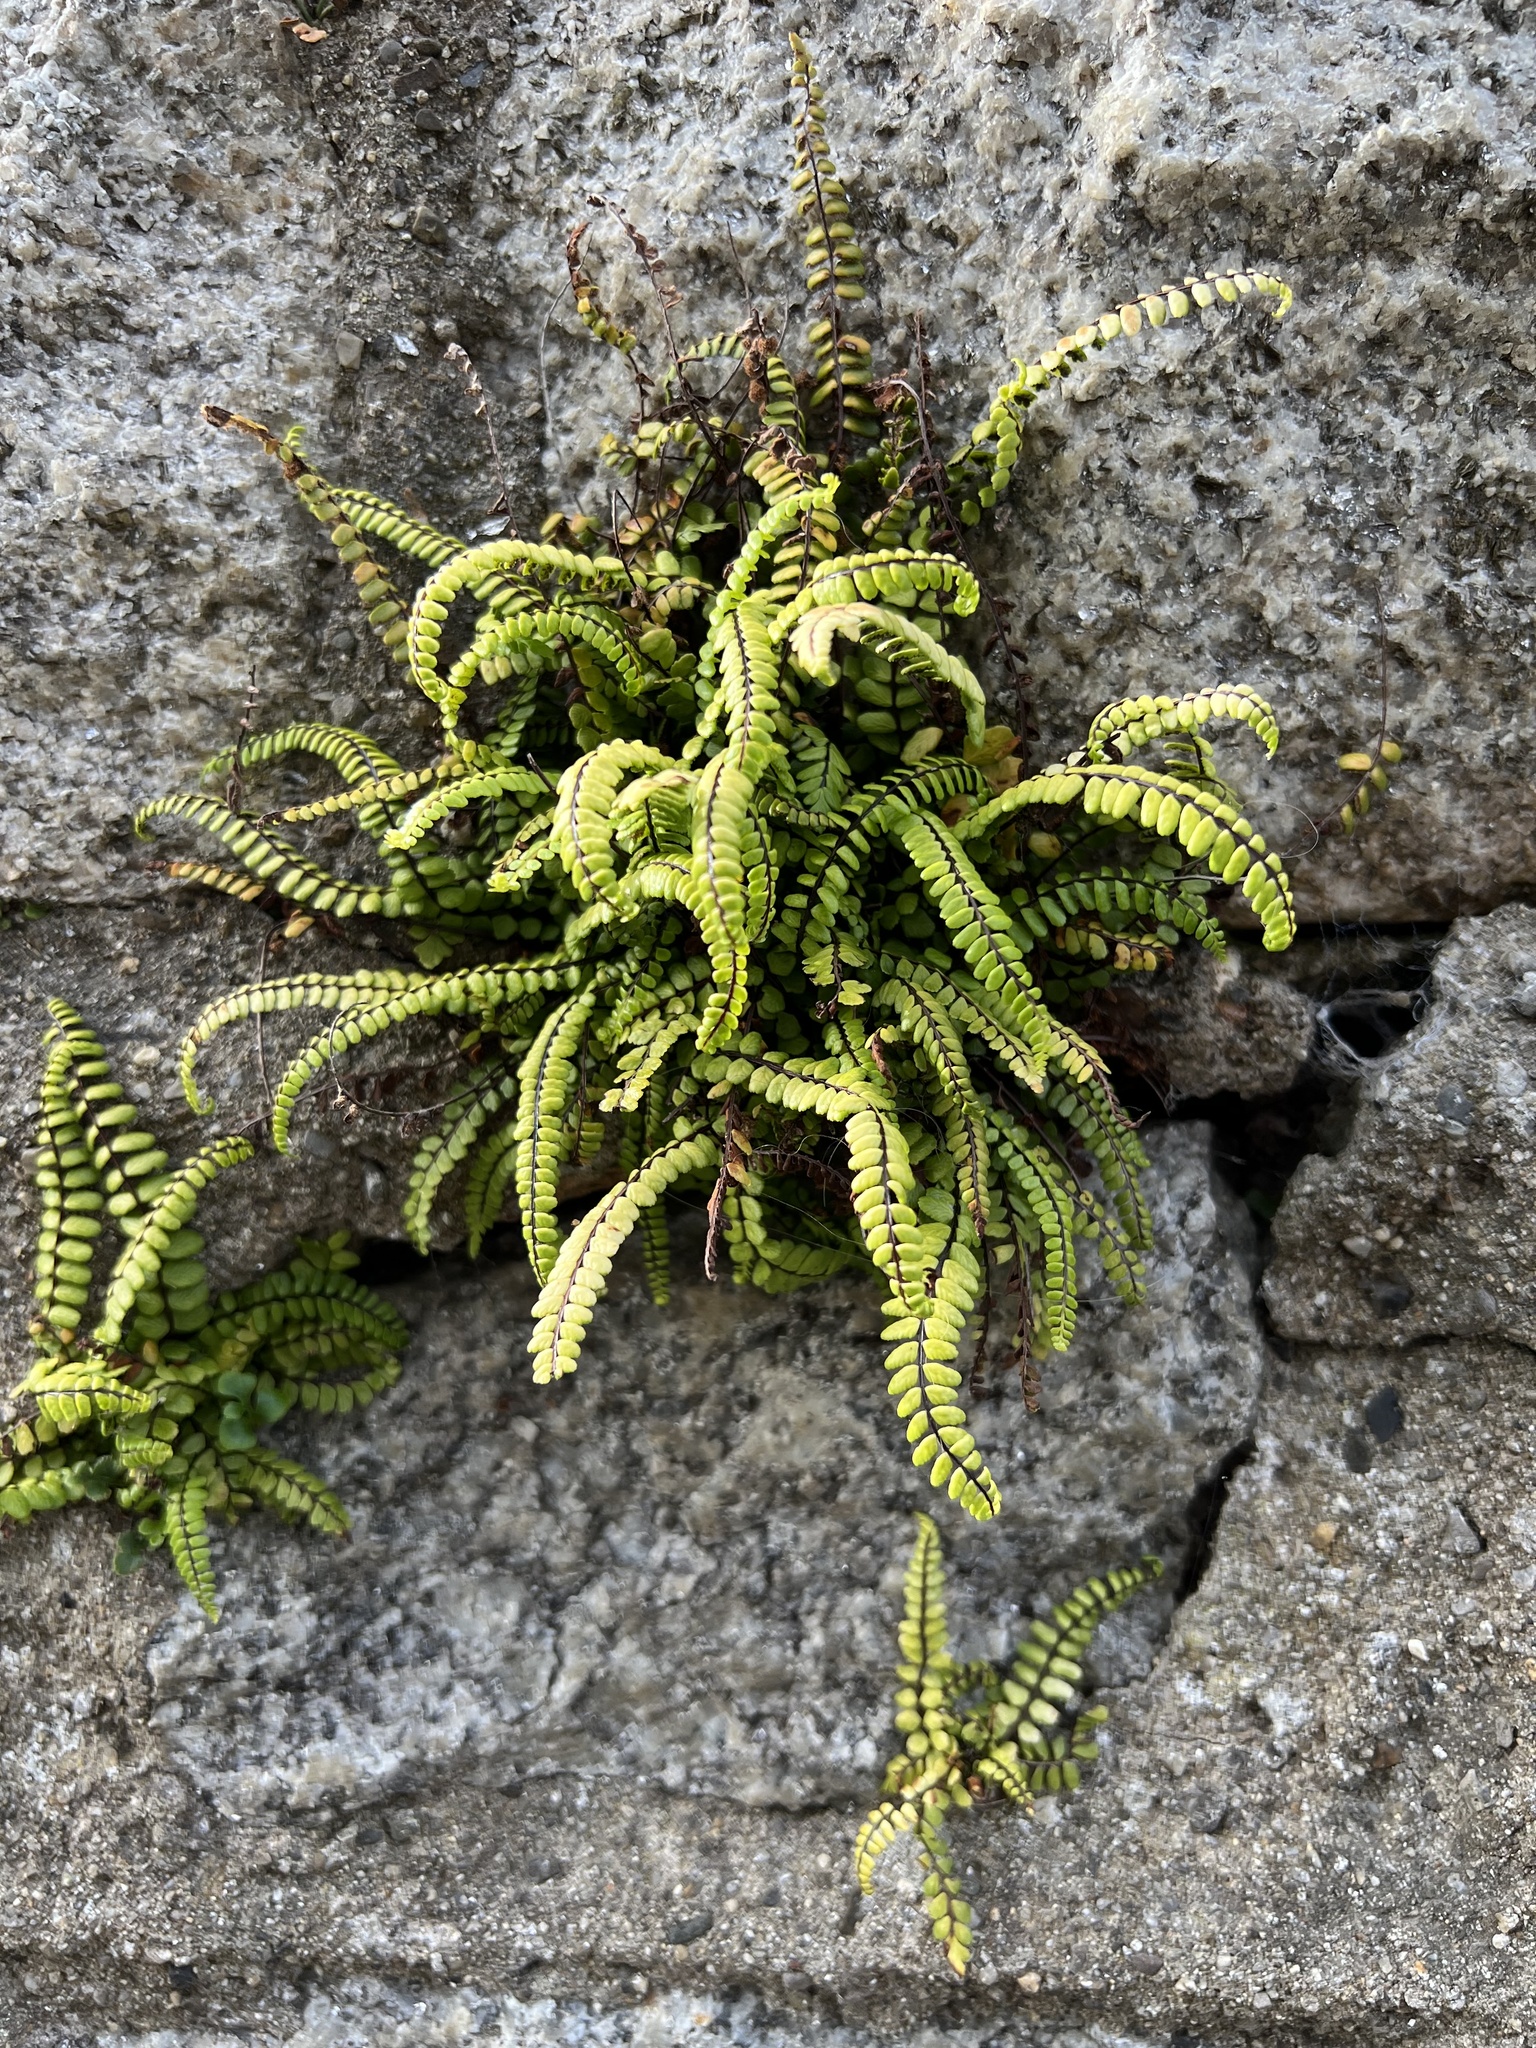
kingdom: Plantae
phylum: Tracheophyta
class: Polypodiopsida
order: Polypodiales
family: Aspleniaceae
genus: Asplenium
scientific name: Asplenium trichomanes
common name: Maidenhair spleenwort
